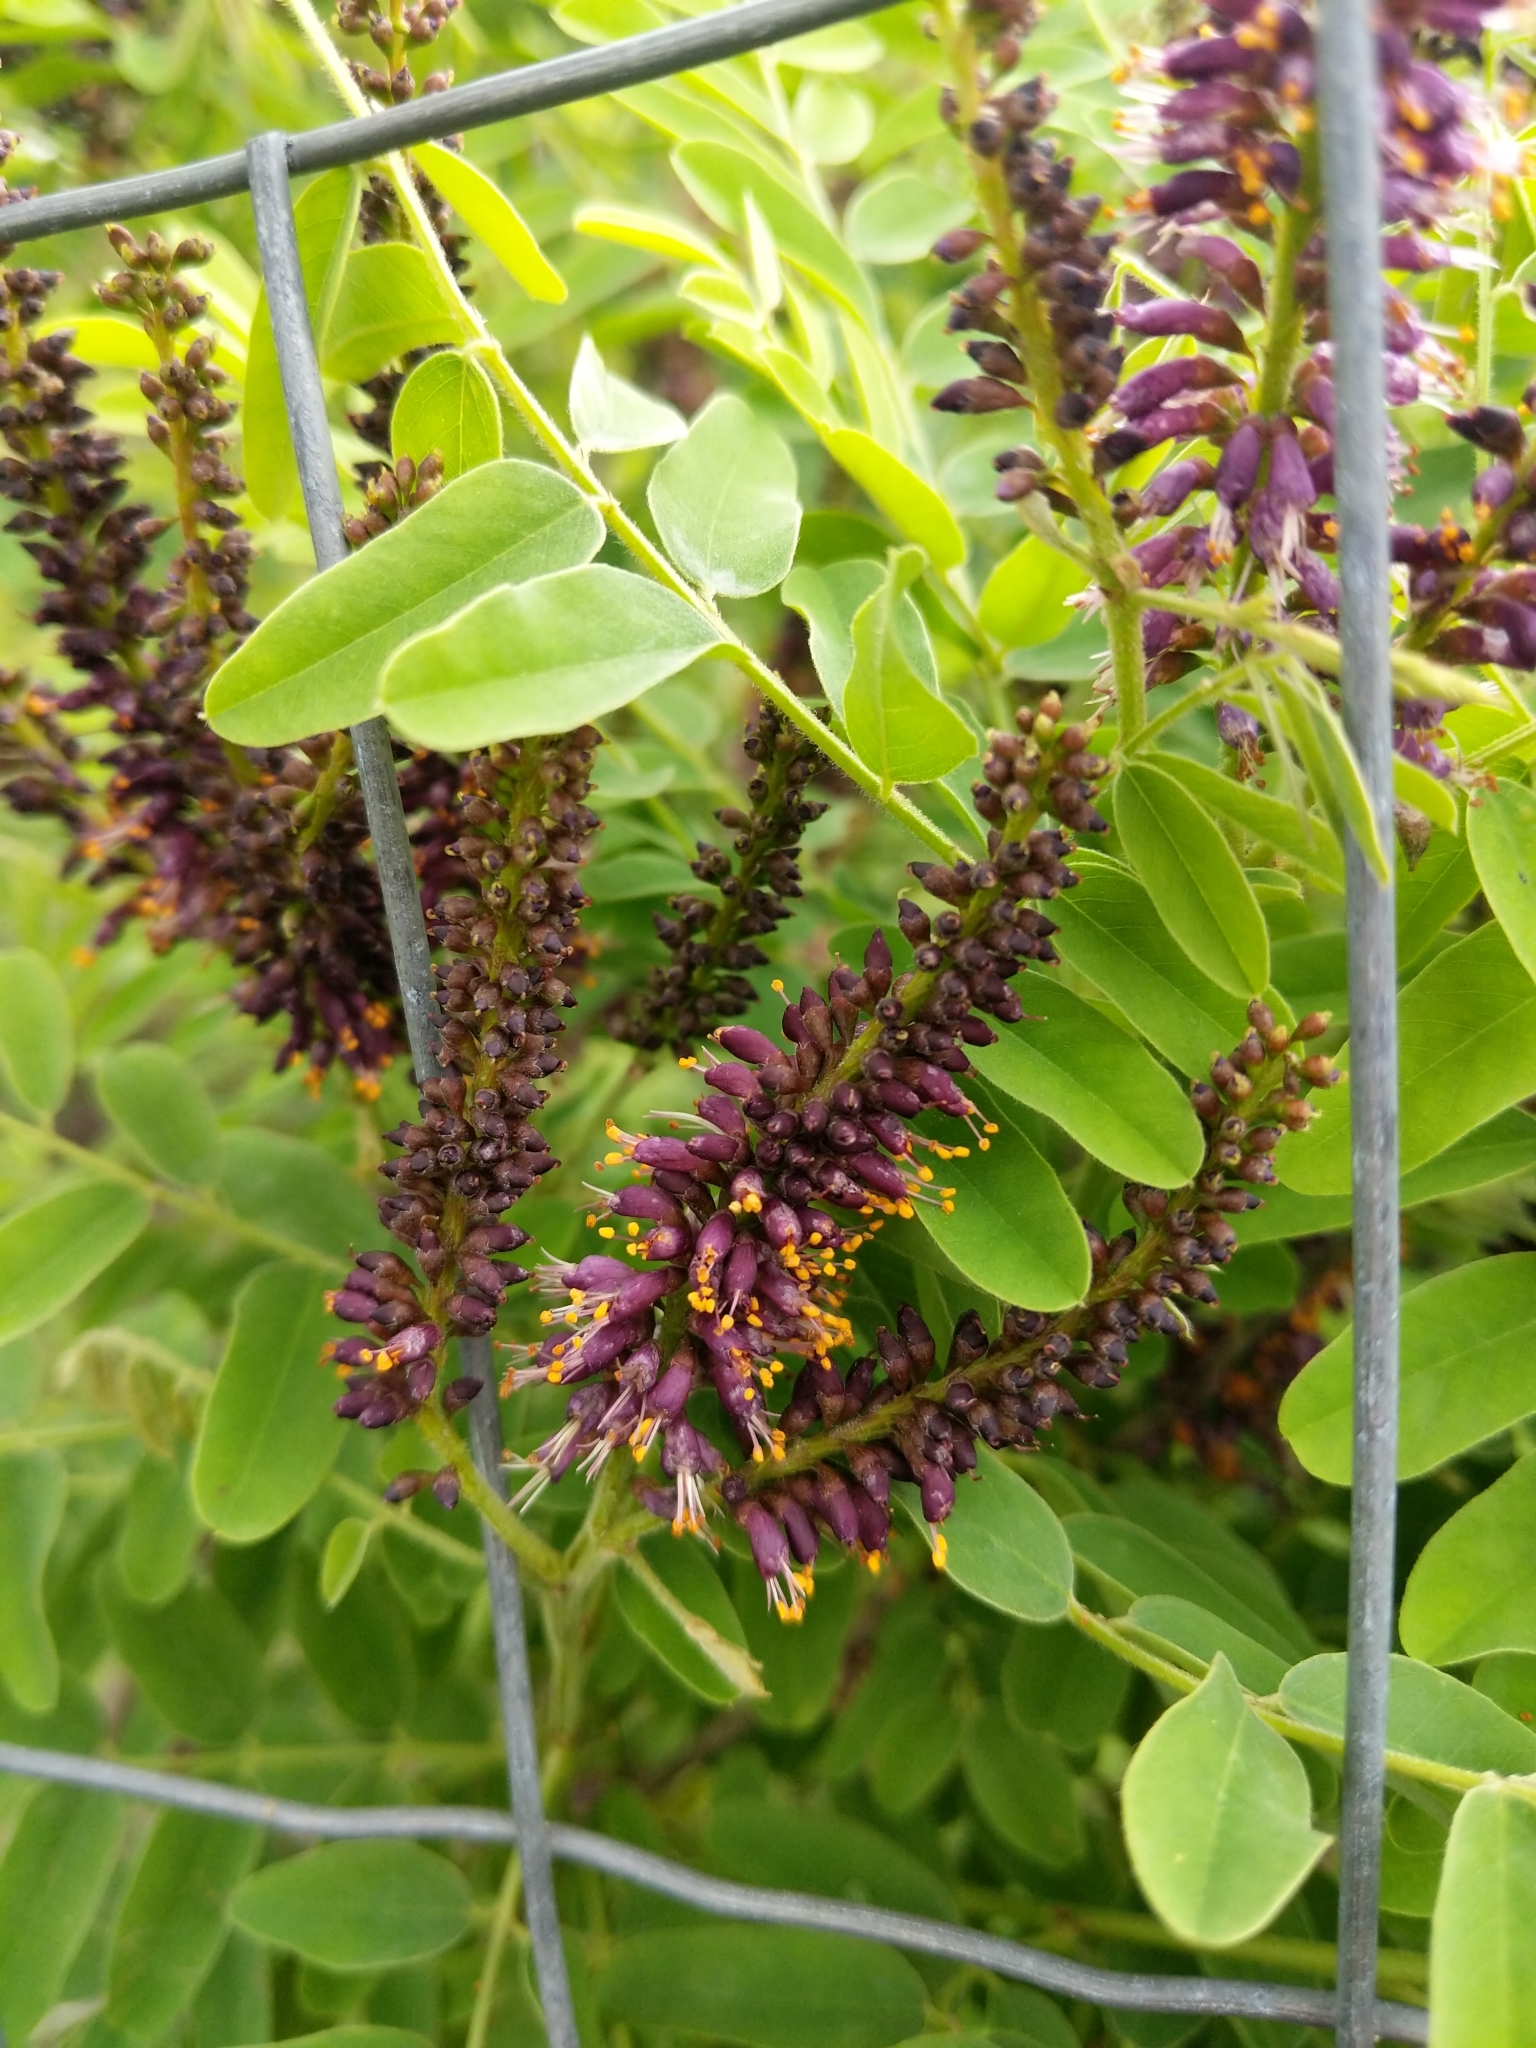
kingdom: Plantae
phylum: Tracheophyta
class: Magnoliopsida
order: Fabales
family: Fabaceae
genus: Amorpha
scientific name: Amorpha fruticosa
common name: False indigo
